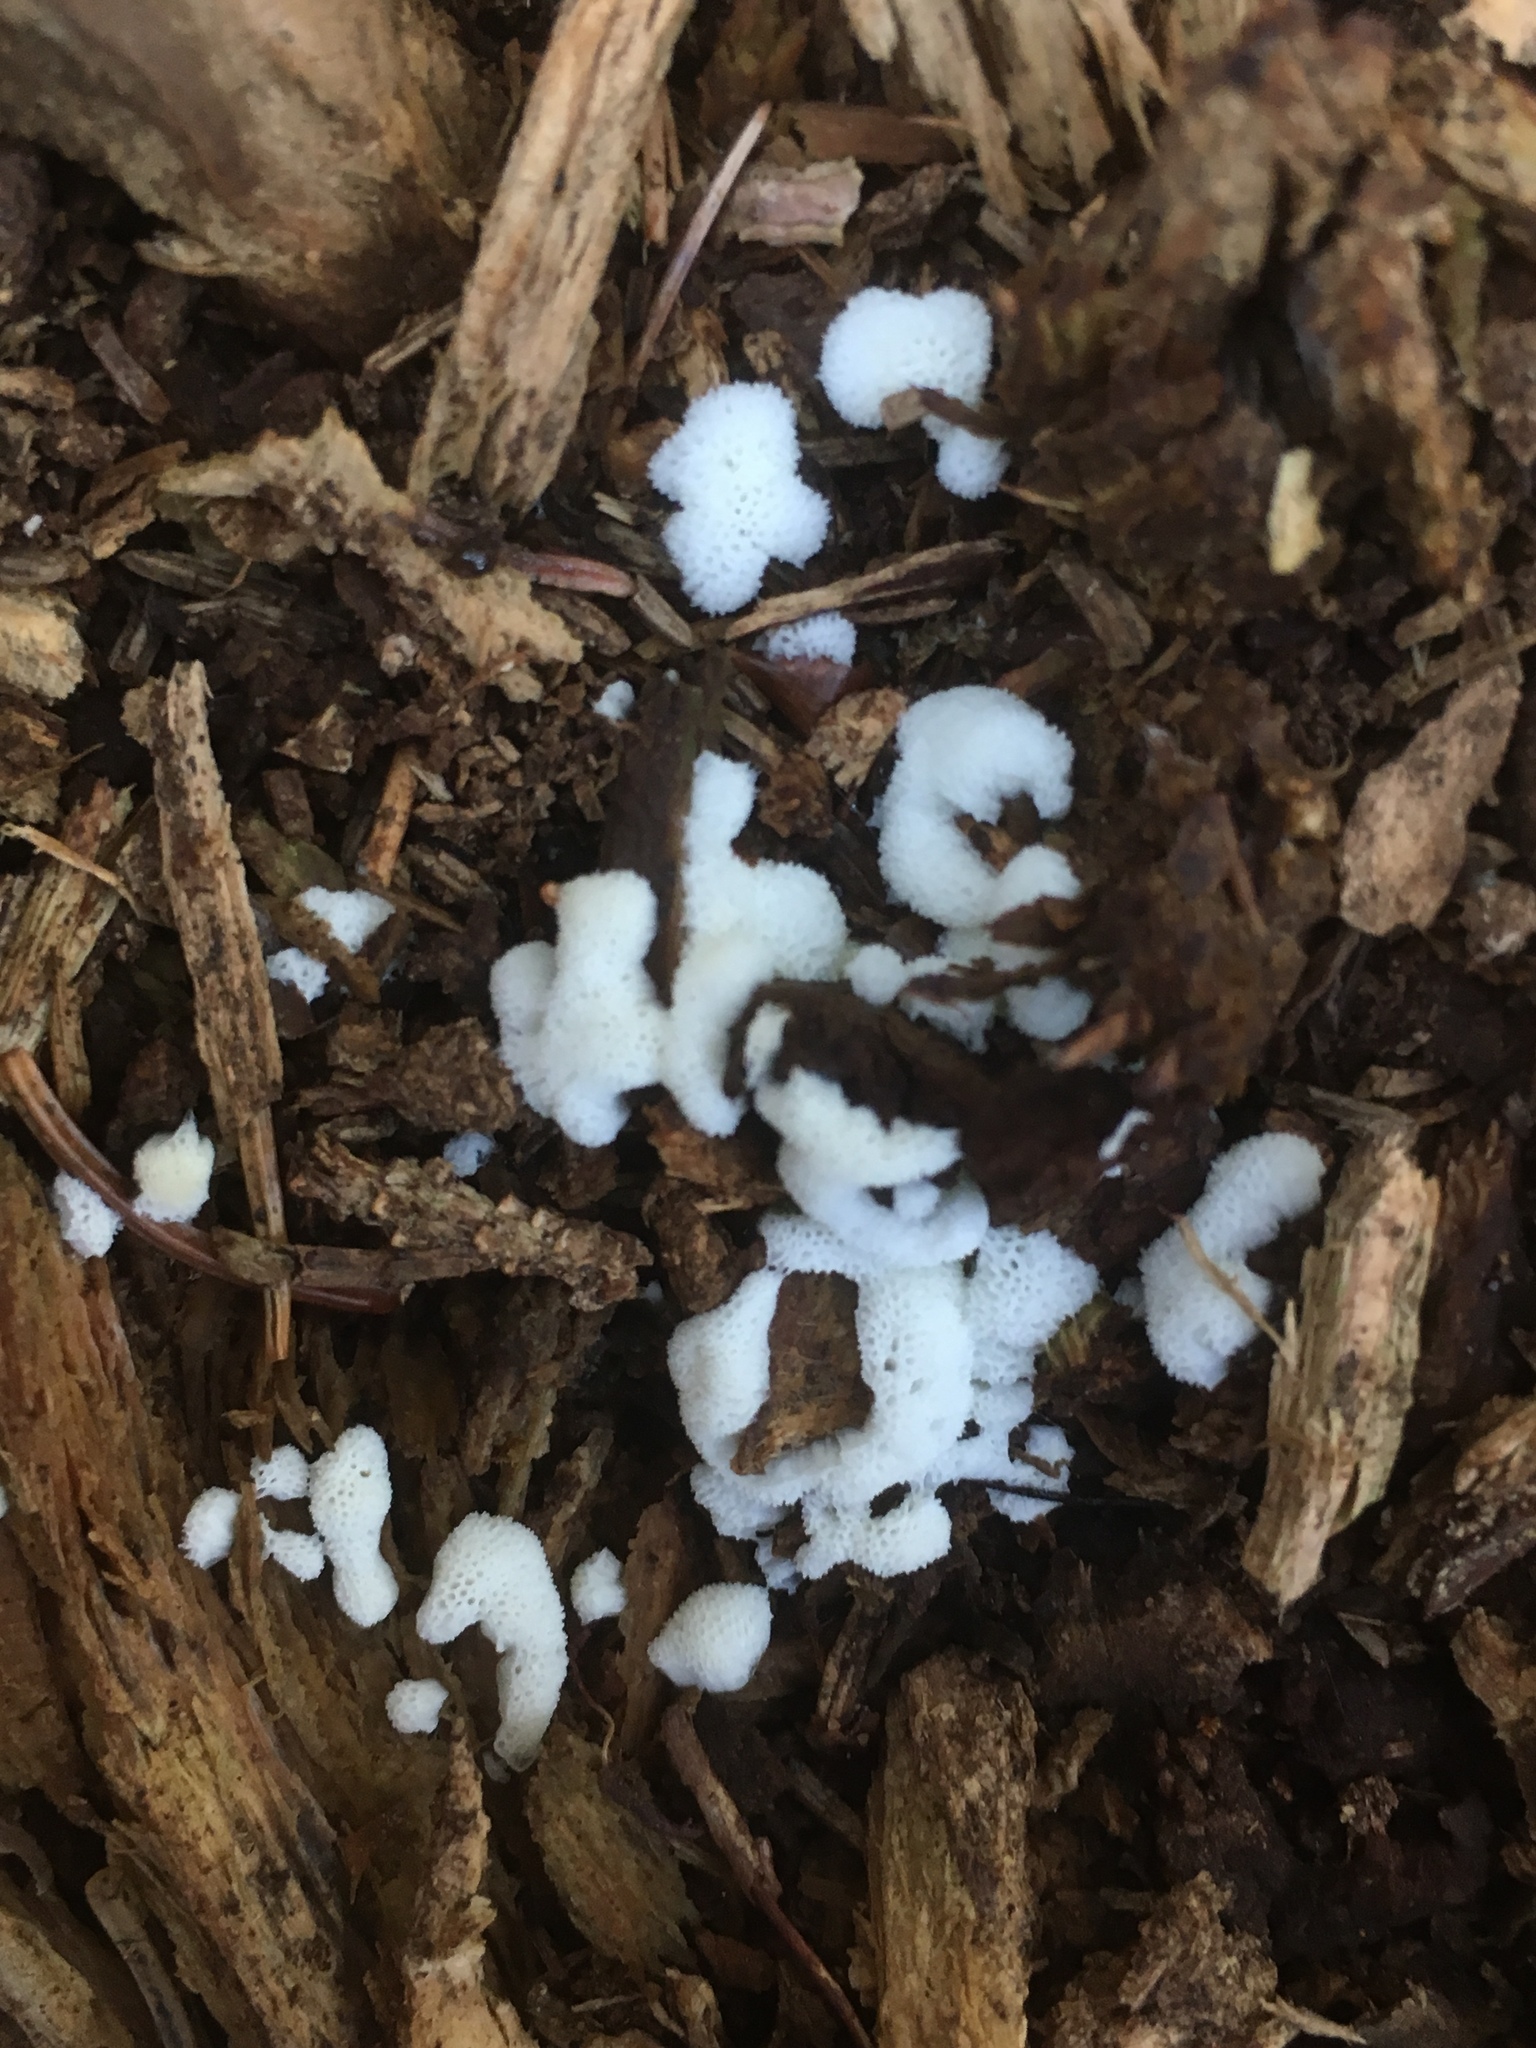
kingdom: Protozoa
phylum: Mycetozoa
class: Protosteliomycetes
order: Ceratiomyxales
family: Ceratiomyxaceae
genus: Ceratiomyxa
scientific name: Ceratiomyxa fruticulosa
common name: Honeycomb coral slime mold
